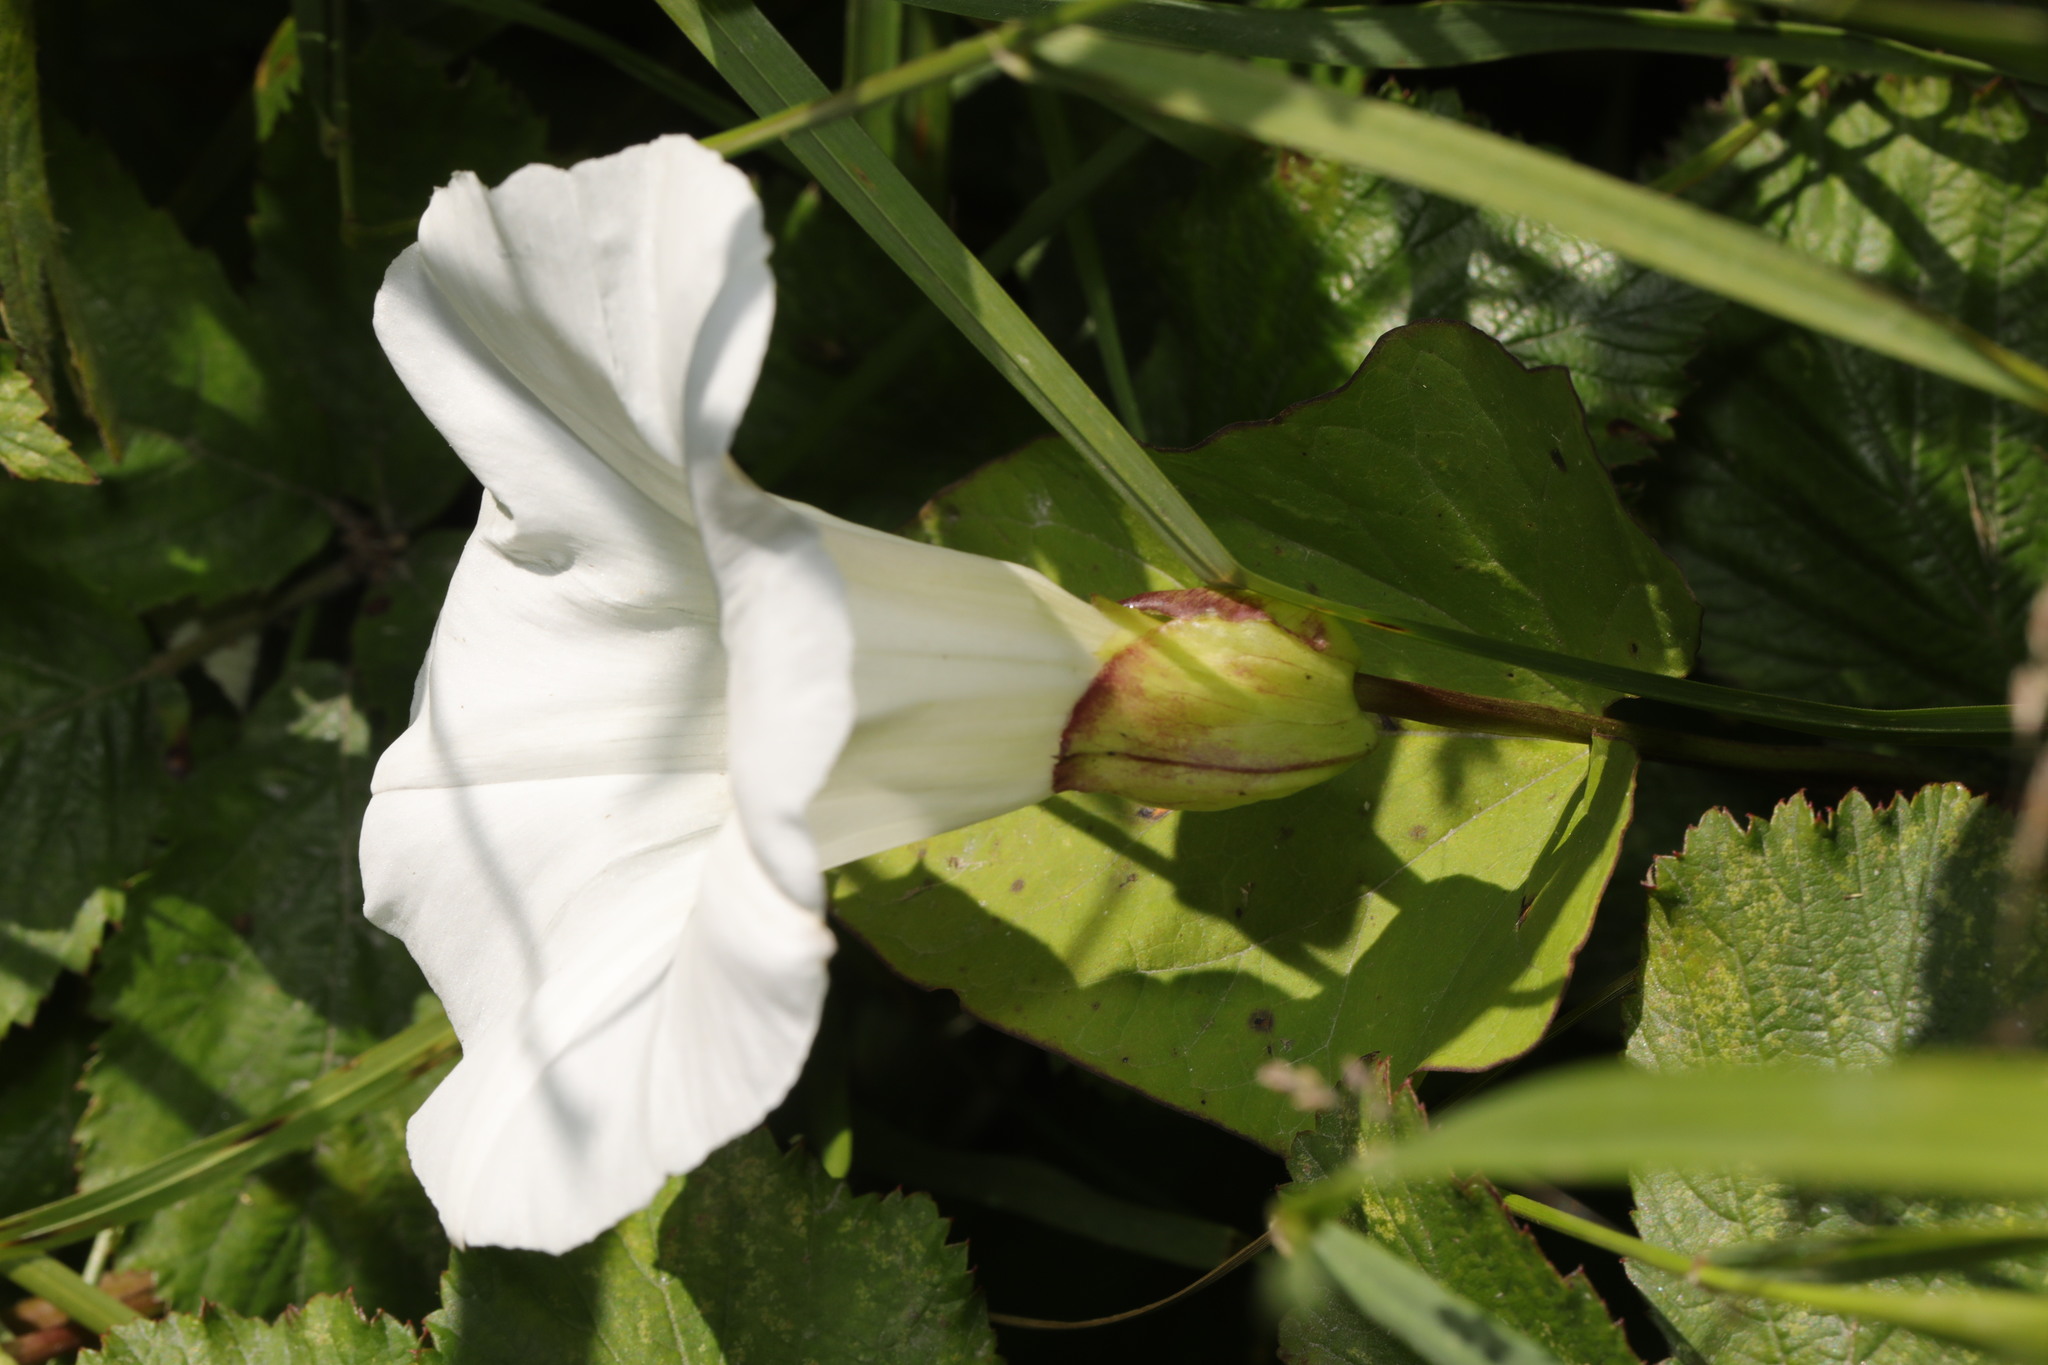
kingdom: Plantae
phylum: Tracheophyta
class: Magnoliopsida
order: Solanales
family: Convolvulaceae
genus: Calystegia
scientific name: Calystegia silvatica
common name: Large bindweed
